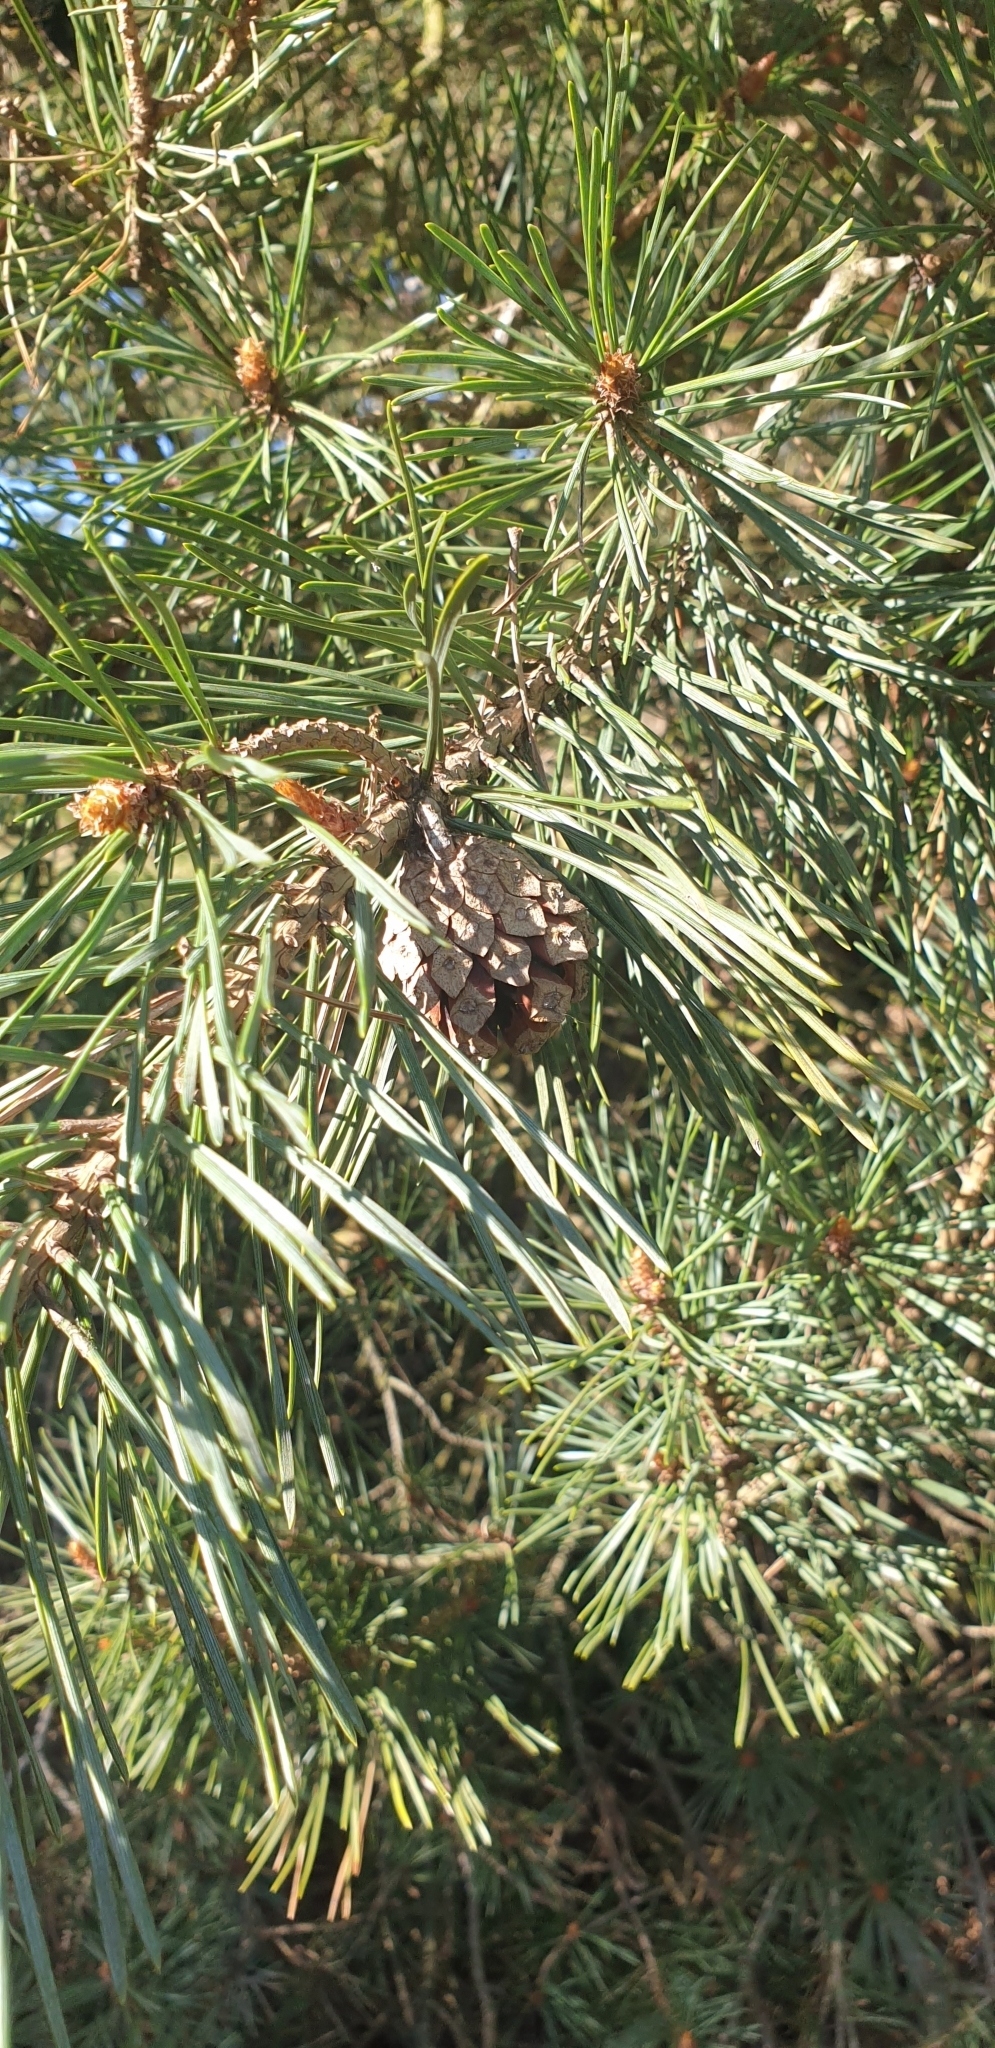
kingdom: Plantae
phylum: Tracheophyta
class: Pinopsida
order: Pinales
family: Pinaceae
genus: Pinus
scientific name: Pinus sylvestris
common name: Scots pine
